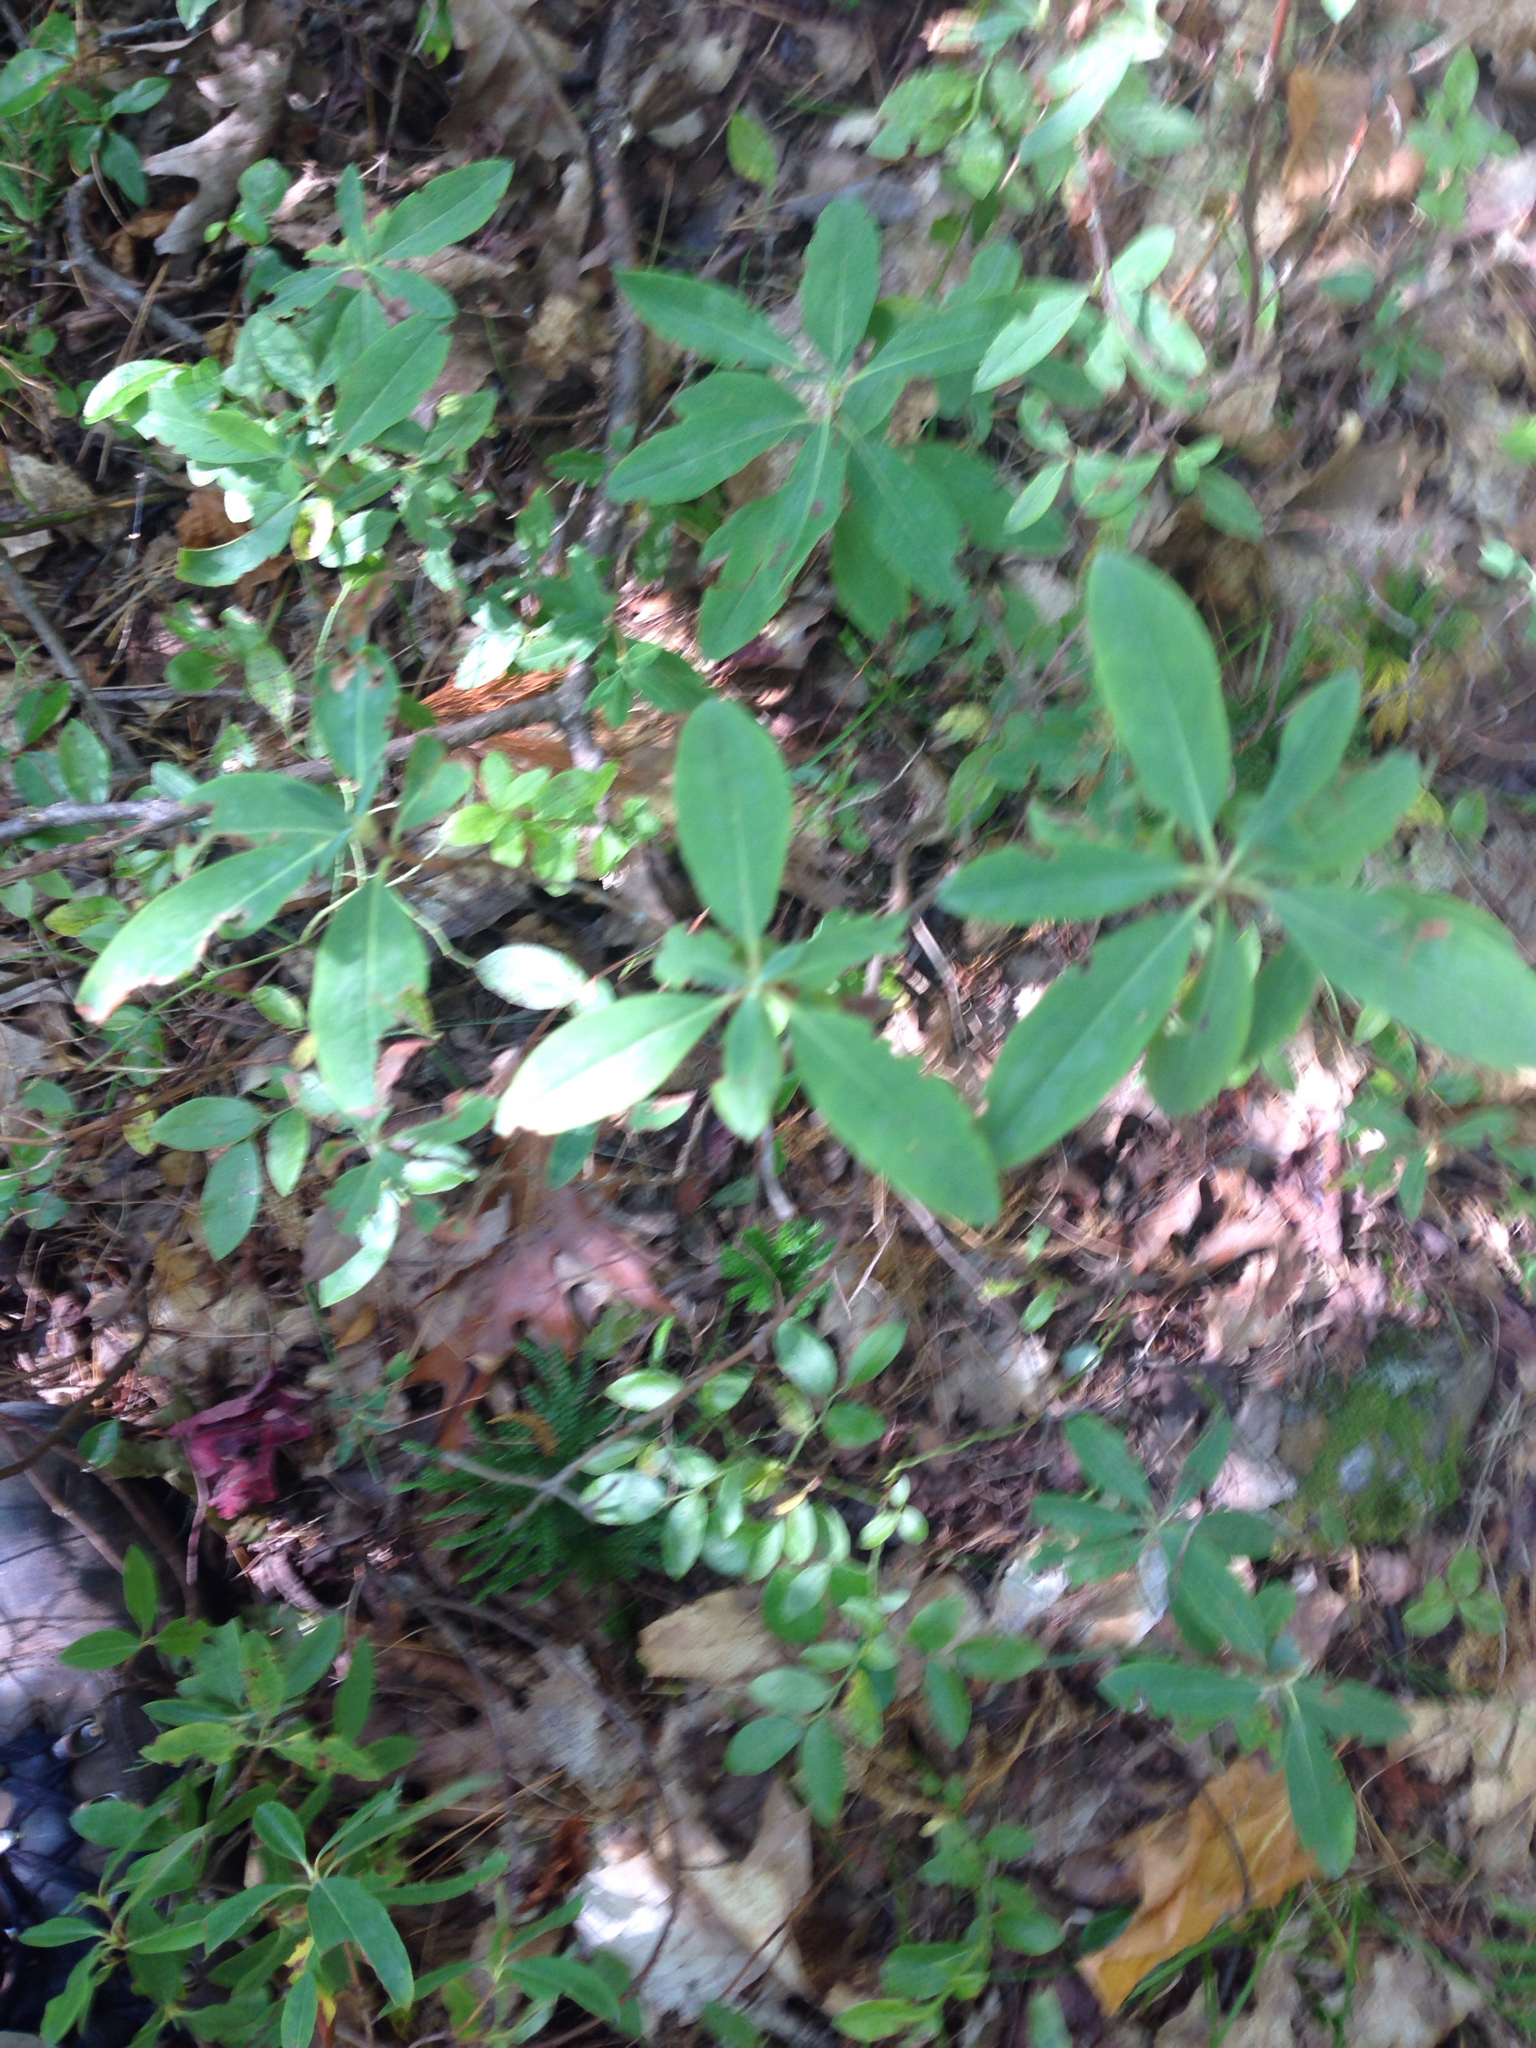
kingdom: Plantae
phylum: Tracheophyta
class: Magnoliopsida
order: Ericales
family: Ericaceae
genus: Kalmia
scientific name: Kalmia angustifolia
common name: Sheep-laurel
